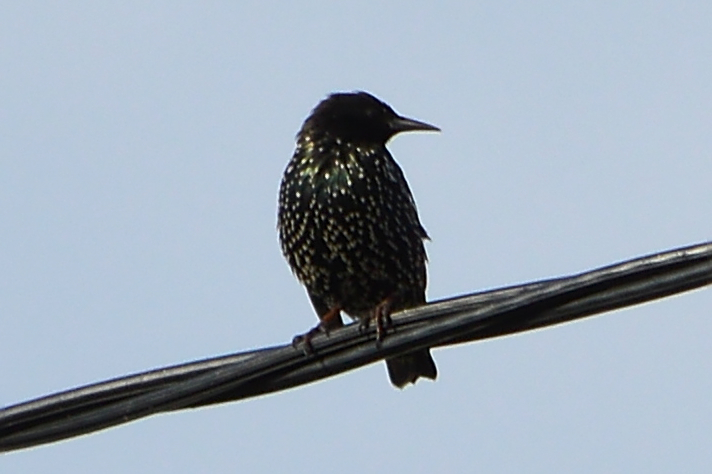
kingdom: Animalia
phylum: Chordata
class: Aves
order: Passeriformes
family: Sturnidae
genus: Sturnus
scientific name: Sturnus vulgaris
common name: Common starling
